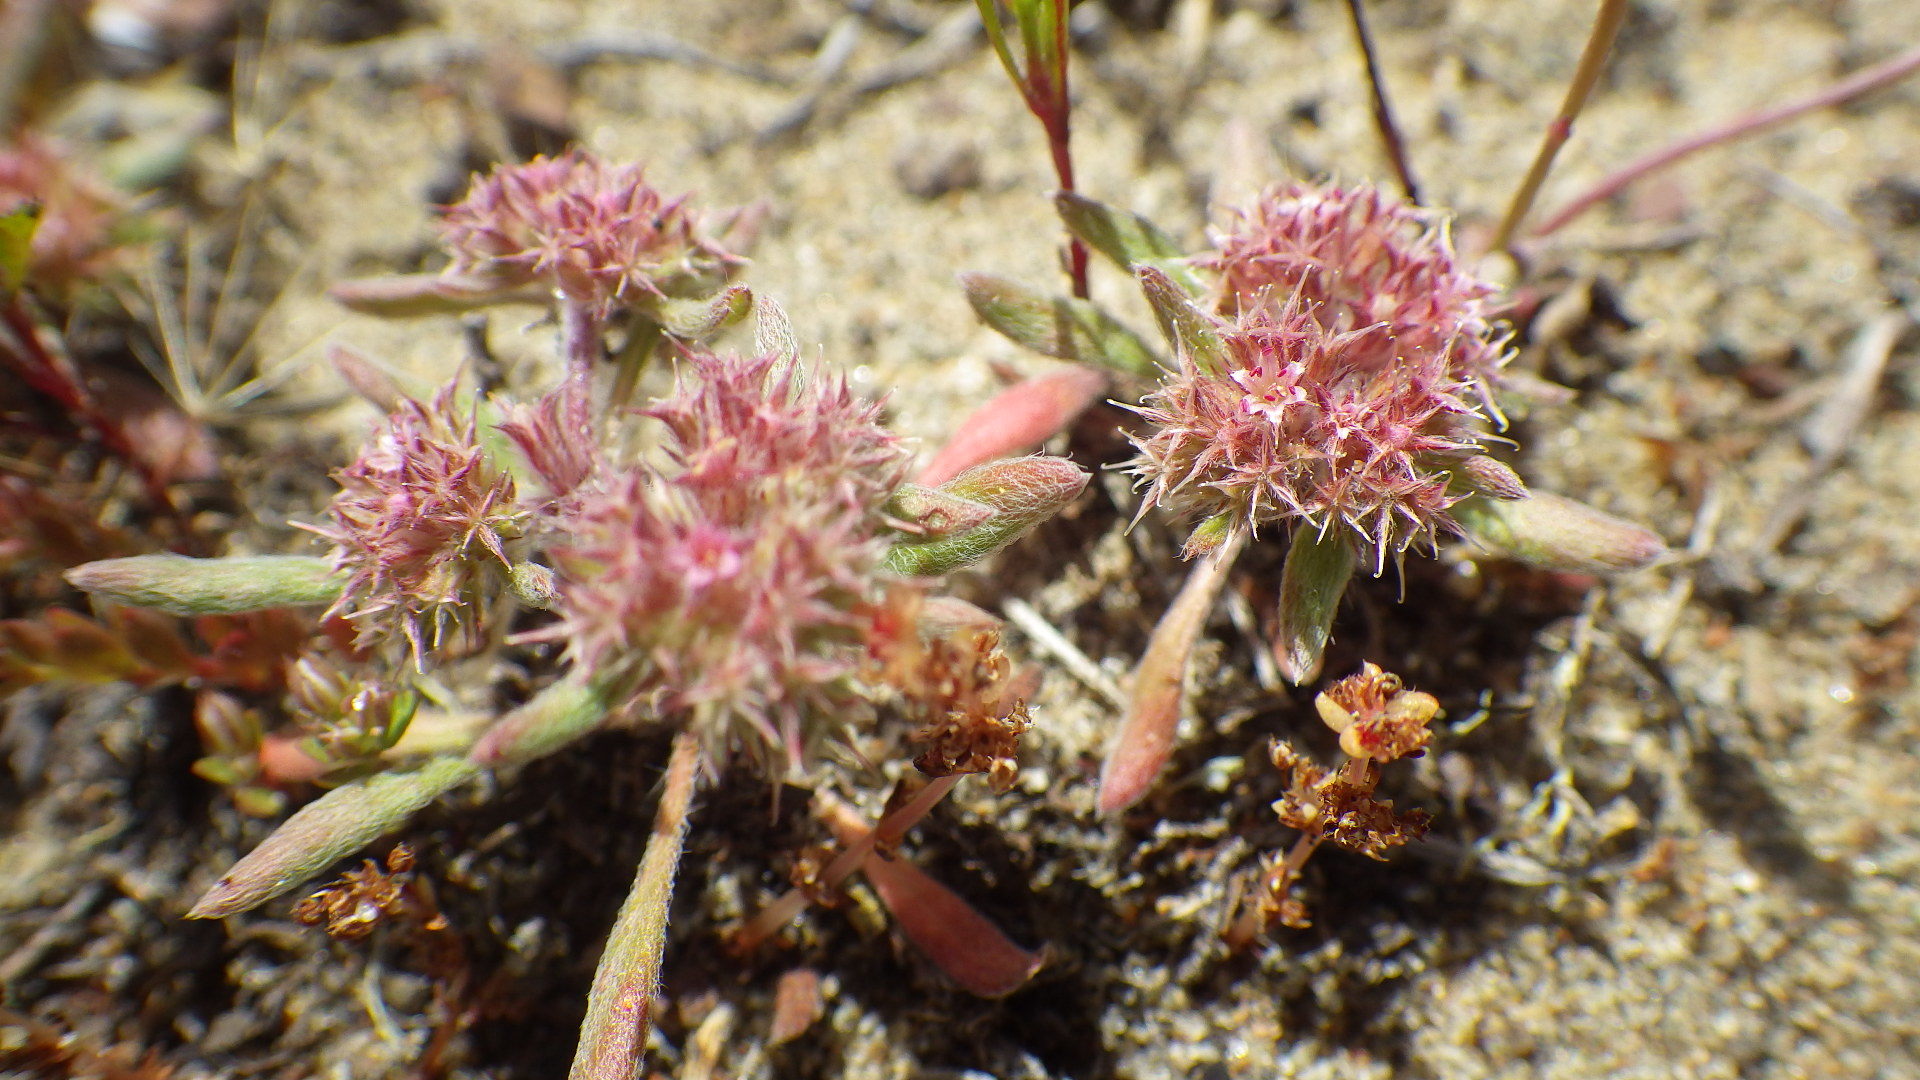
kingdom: Plantae
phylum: Tracheophyta
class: Magnoliopsida
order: Caryophyllales
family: Polygonaceae
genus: Chorizanthe
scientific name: Chorizanthe cuspidata
